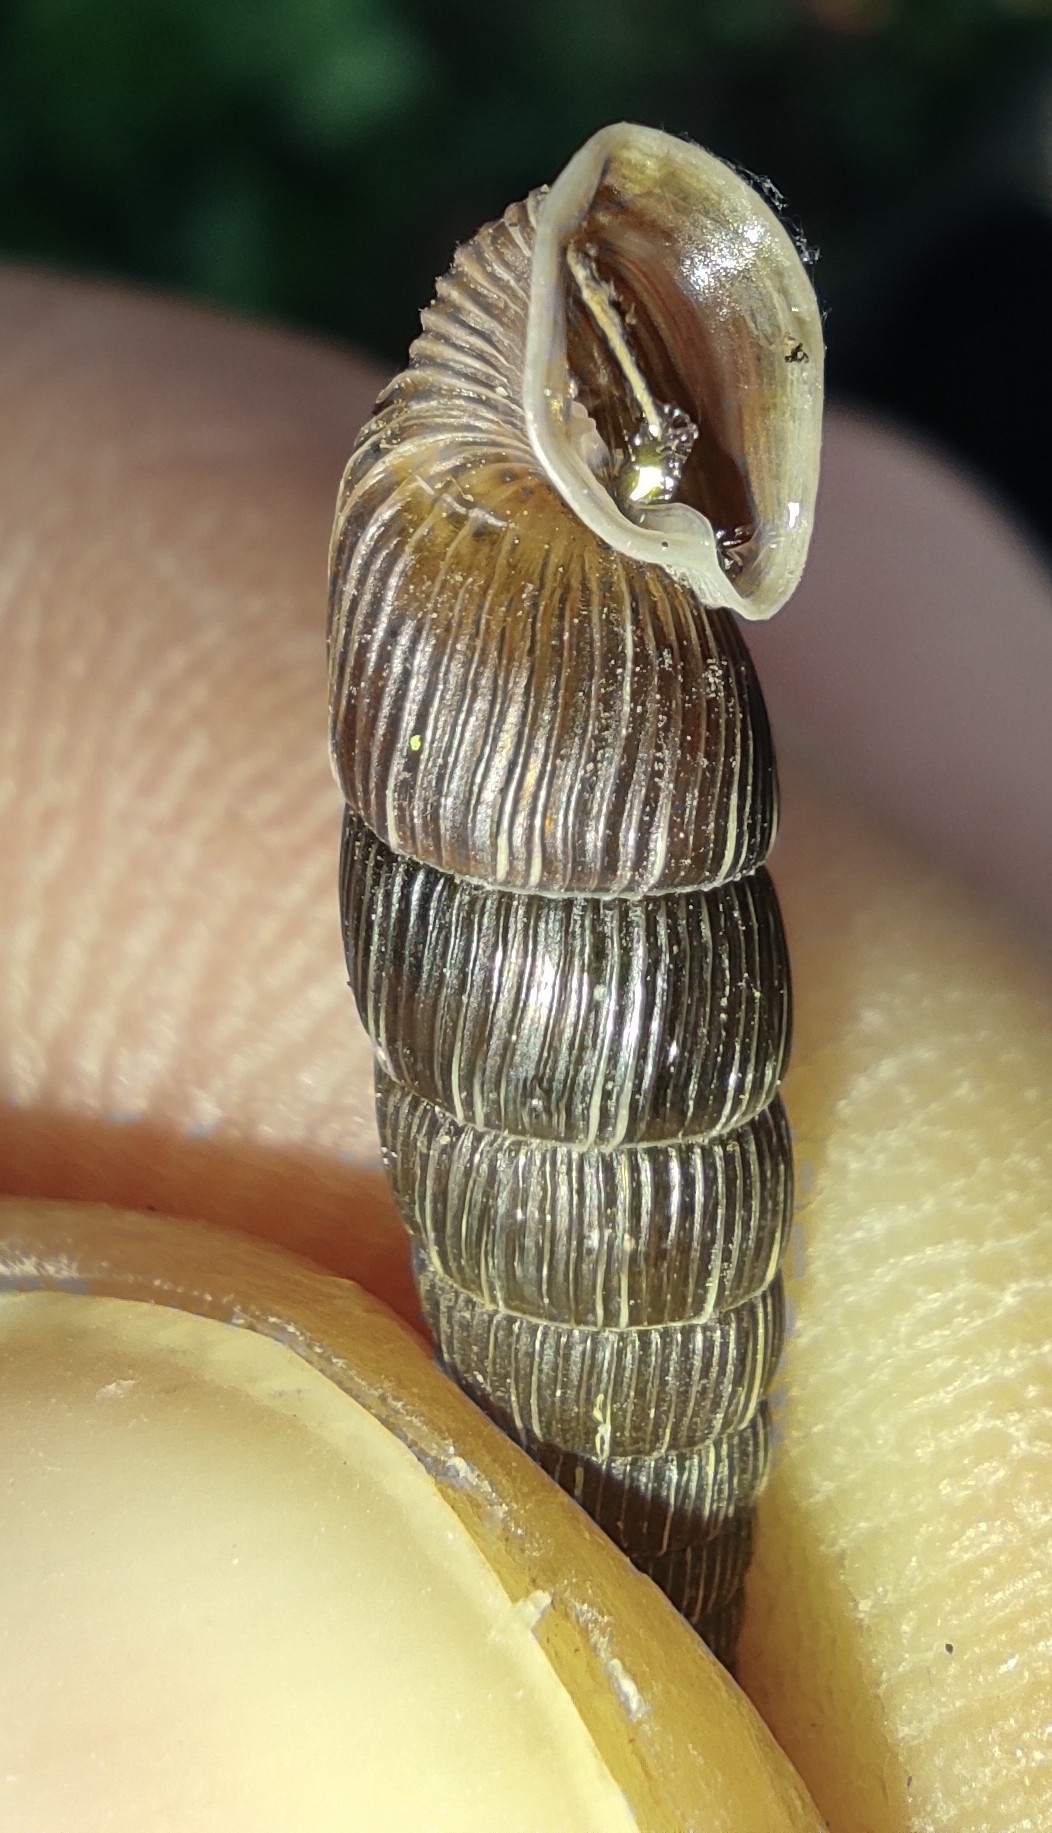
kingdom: Animalia
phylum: Mollusca
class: Gastropoda
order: Stylommatophora
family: Clausiliidae
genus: Alinda
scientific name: Alinda biplicata
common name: Thames door snail
